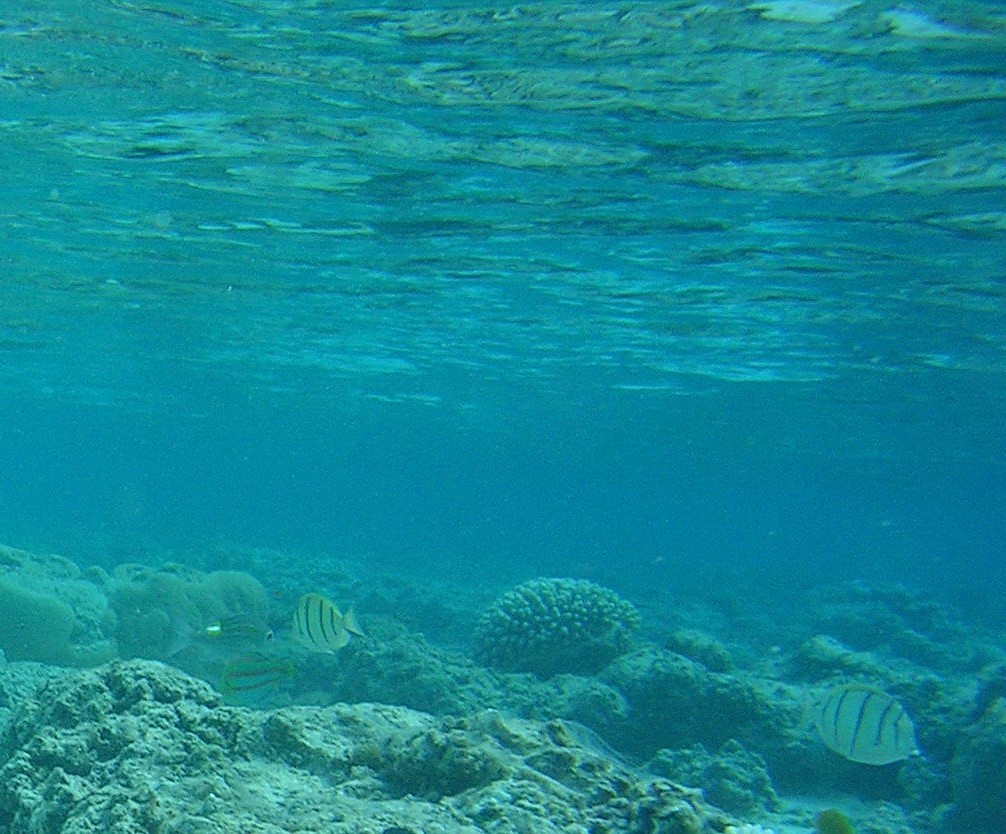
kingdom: Animalia
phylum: Chordata
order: Perciformes
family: Acanthuridae
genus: Acanthurus
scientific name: Acanthurus triostegus
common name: Convict surgeonfish
